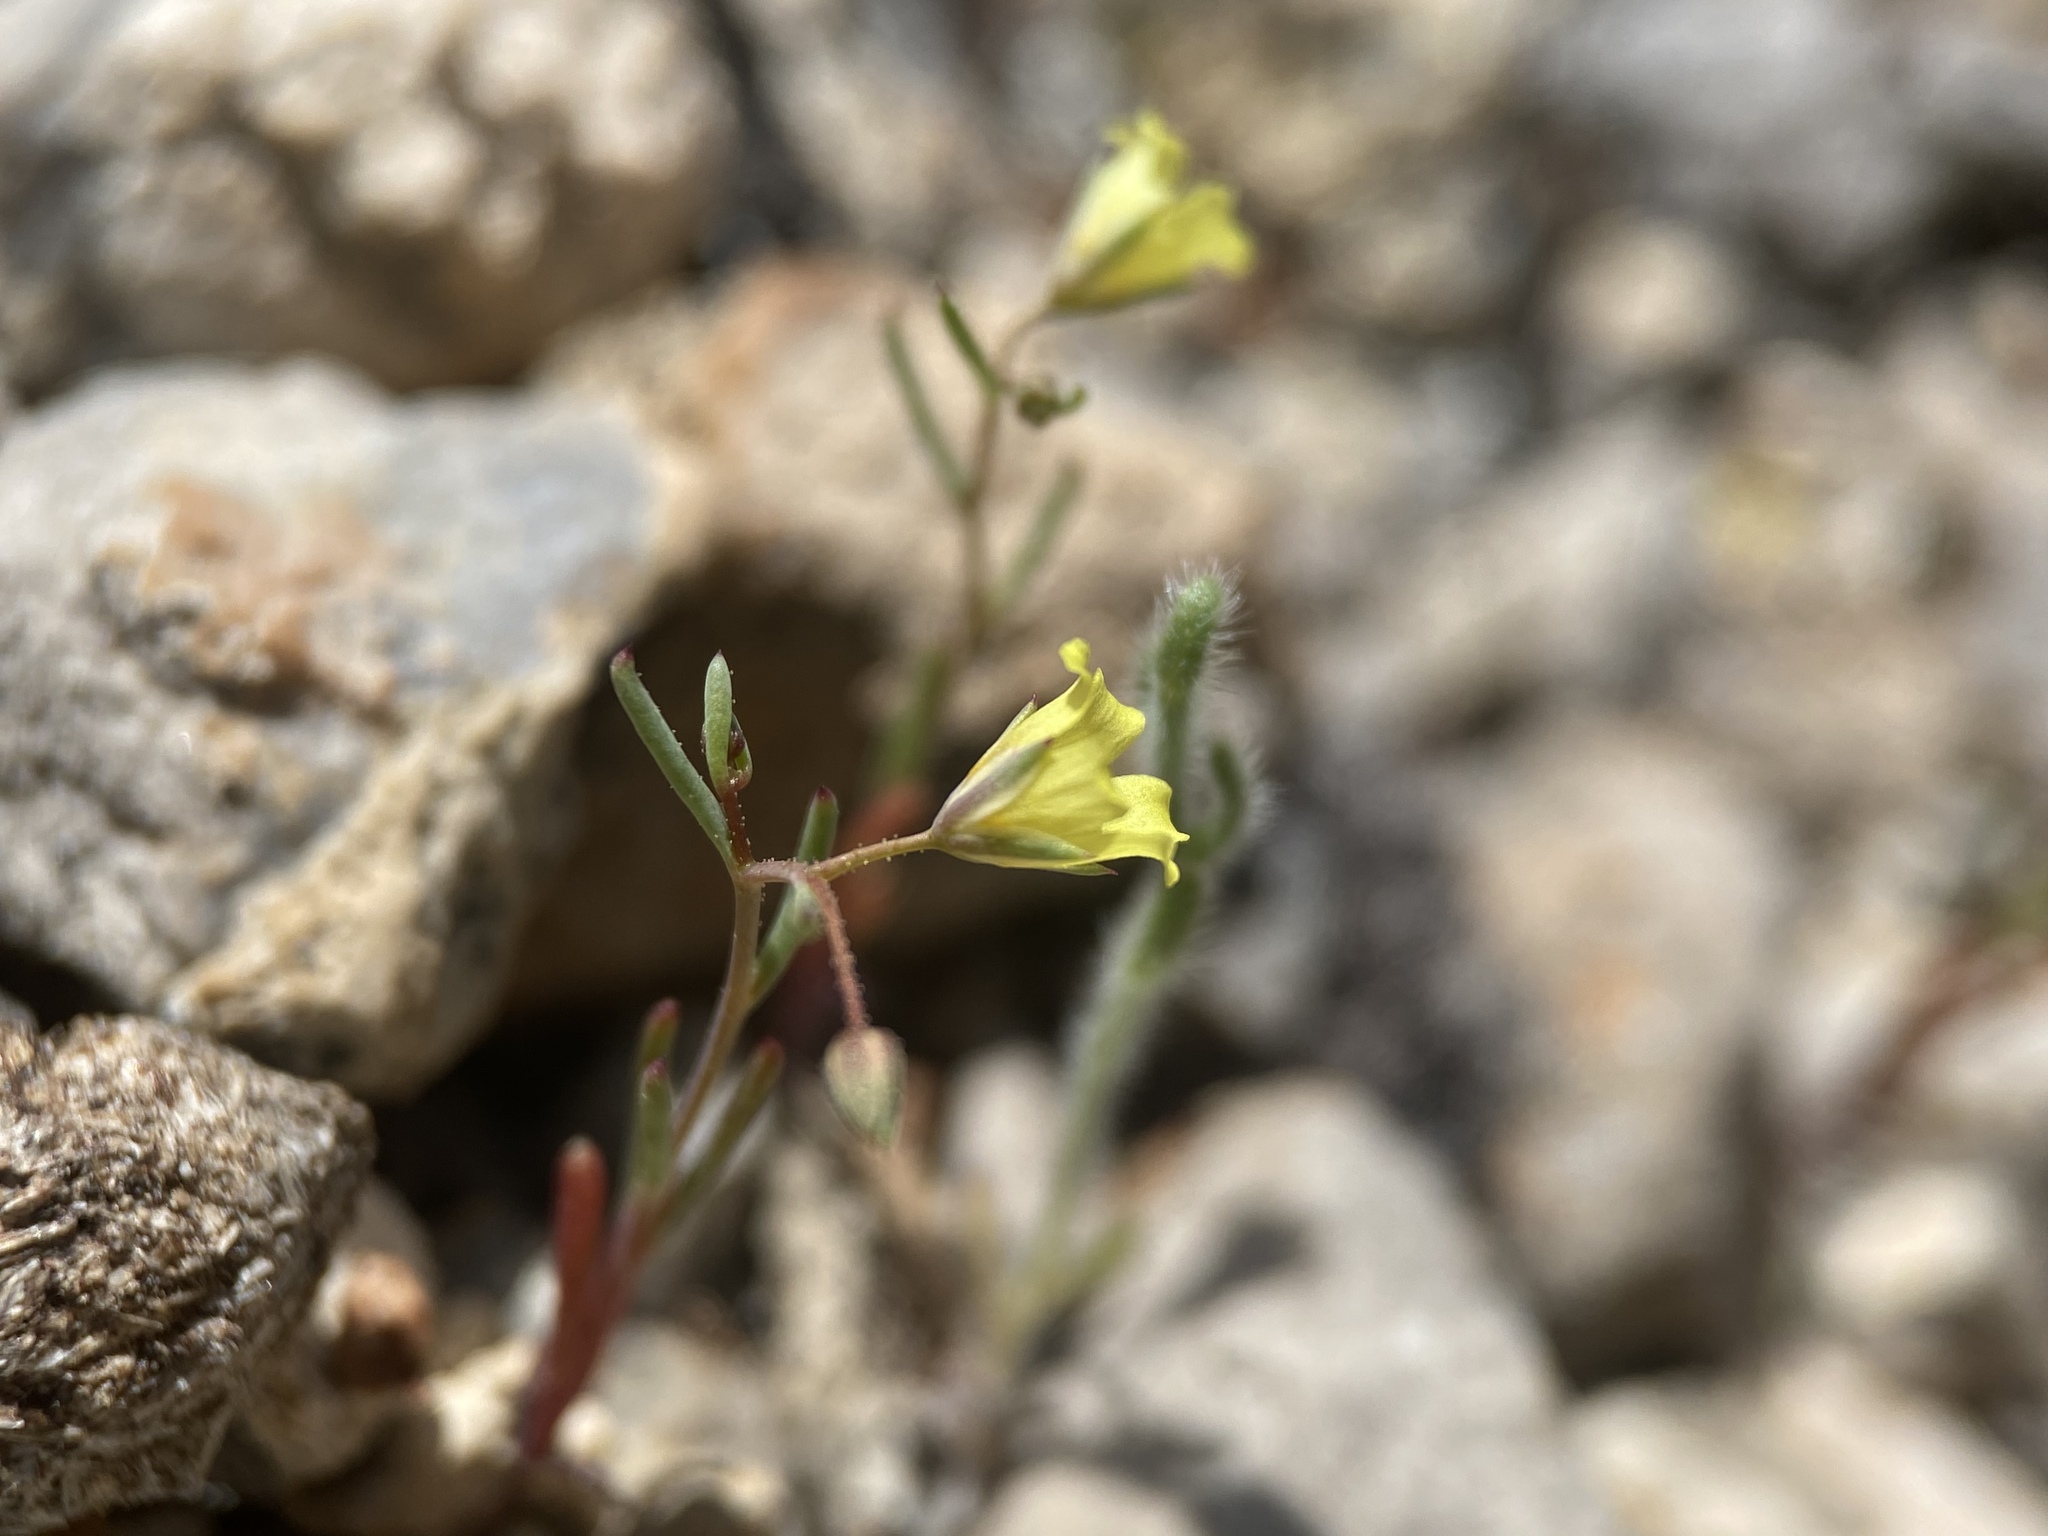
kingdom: Plantae
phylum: Tracheophyta
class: Magnoliopsida
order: Ericales
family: Polemoniaceae
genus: Linanthus
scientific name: Linanthus filiformis
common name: Yellow gilia
